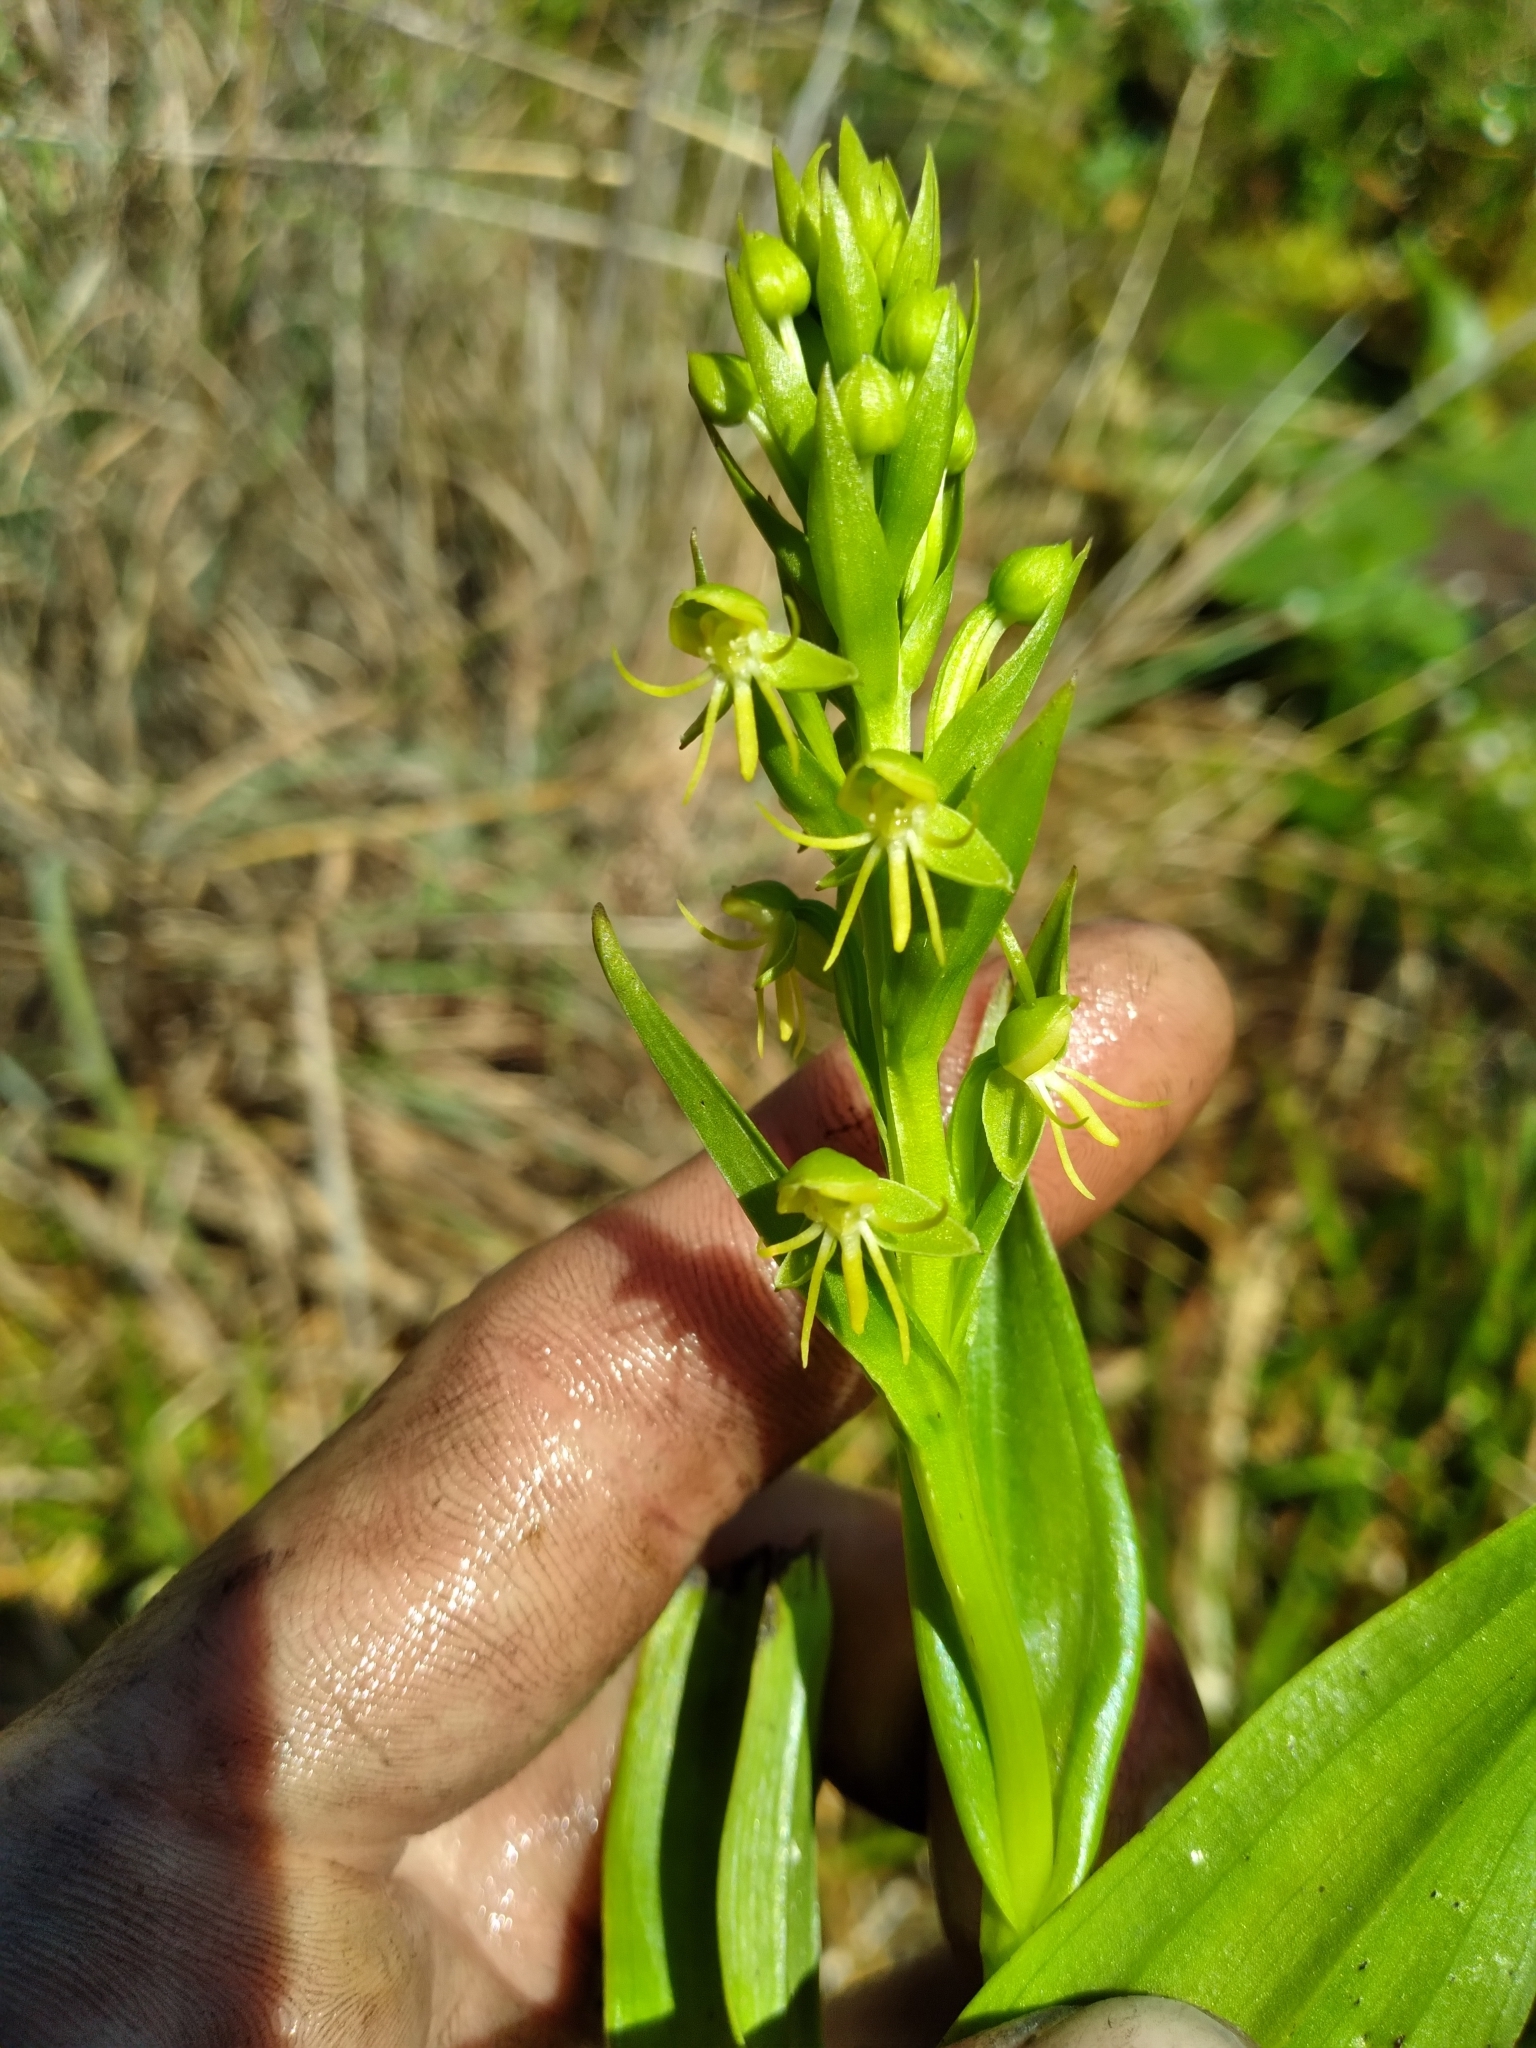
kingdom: Plantae
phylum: Tracheophyta
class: Liliopsida
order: Asparagales
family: Orchidaceae
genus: Habenaria
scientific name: Habenaria repens
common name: Water orchid
